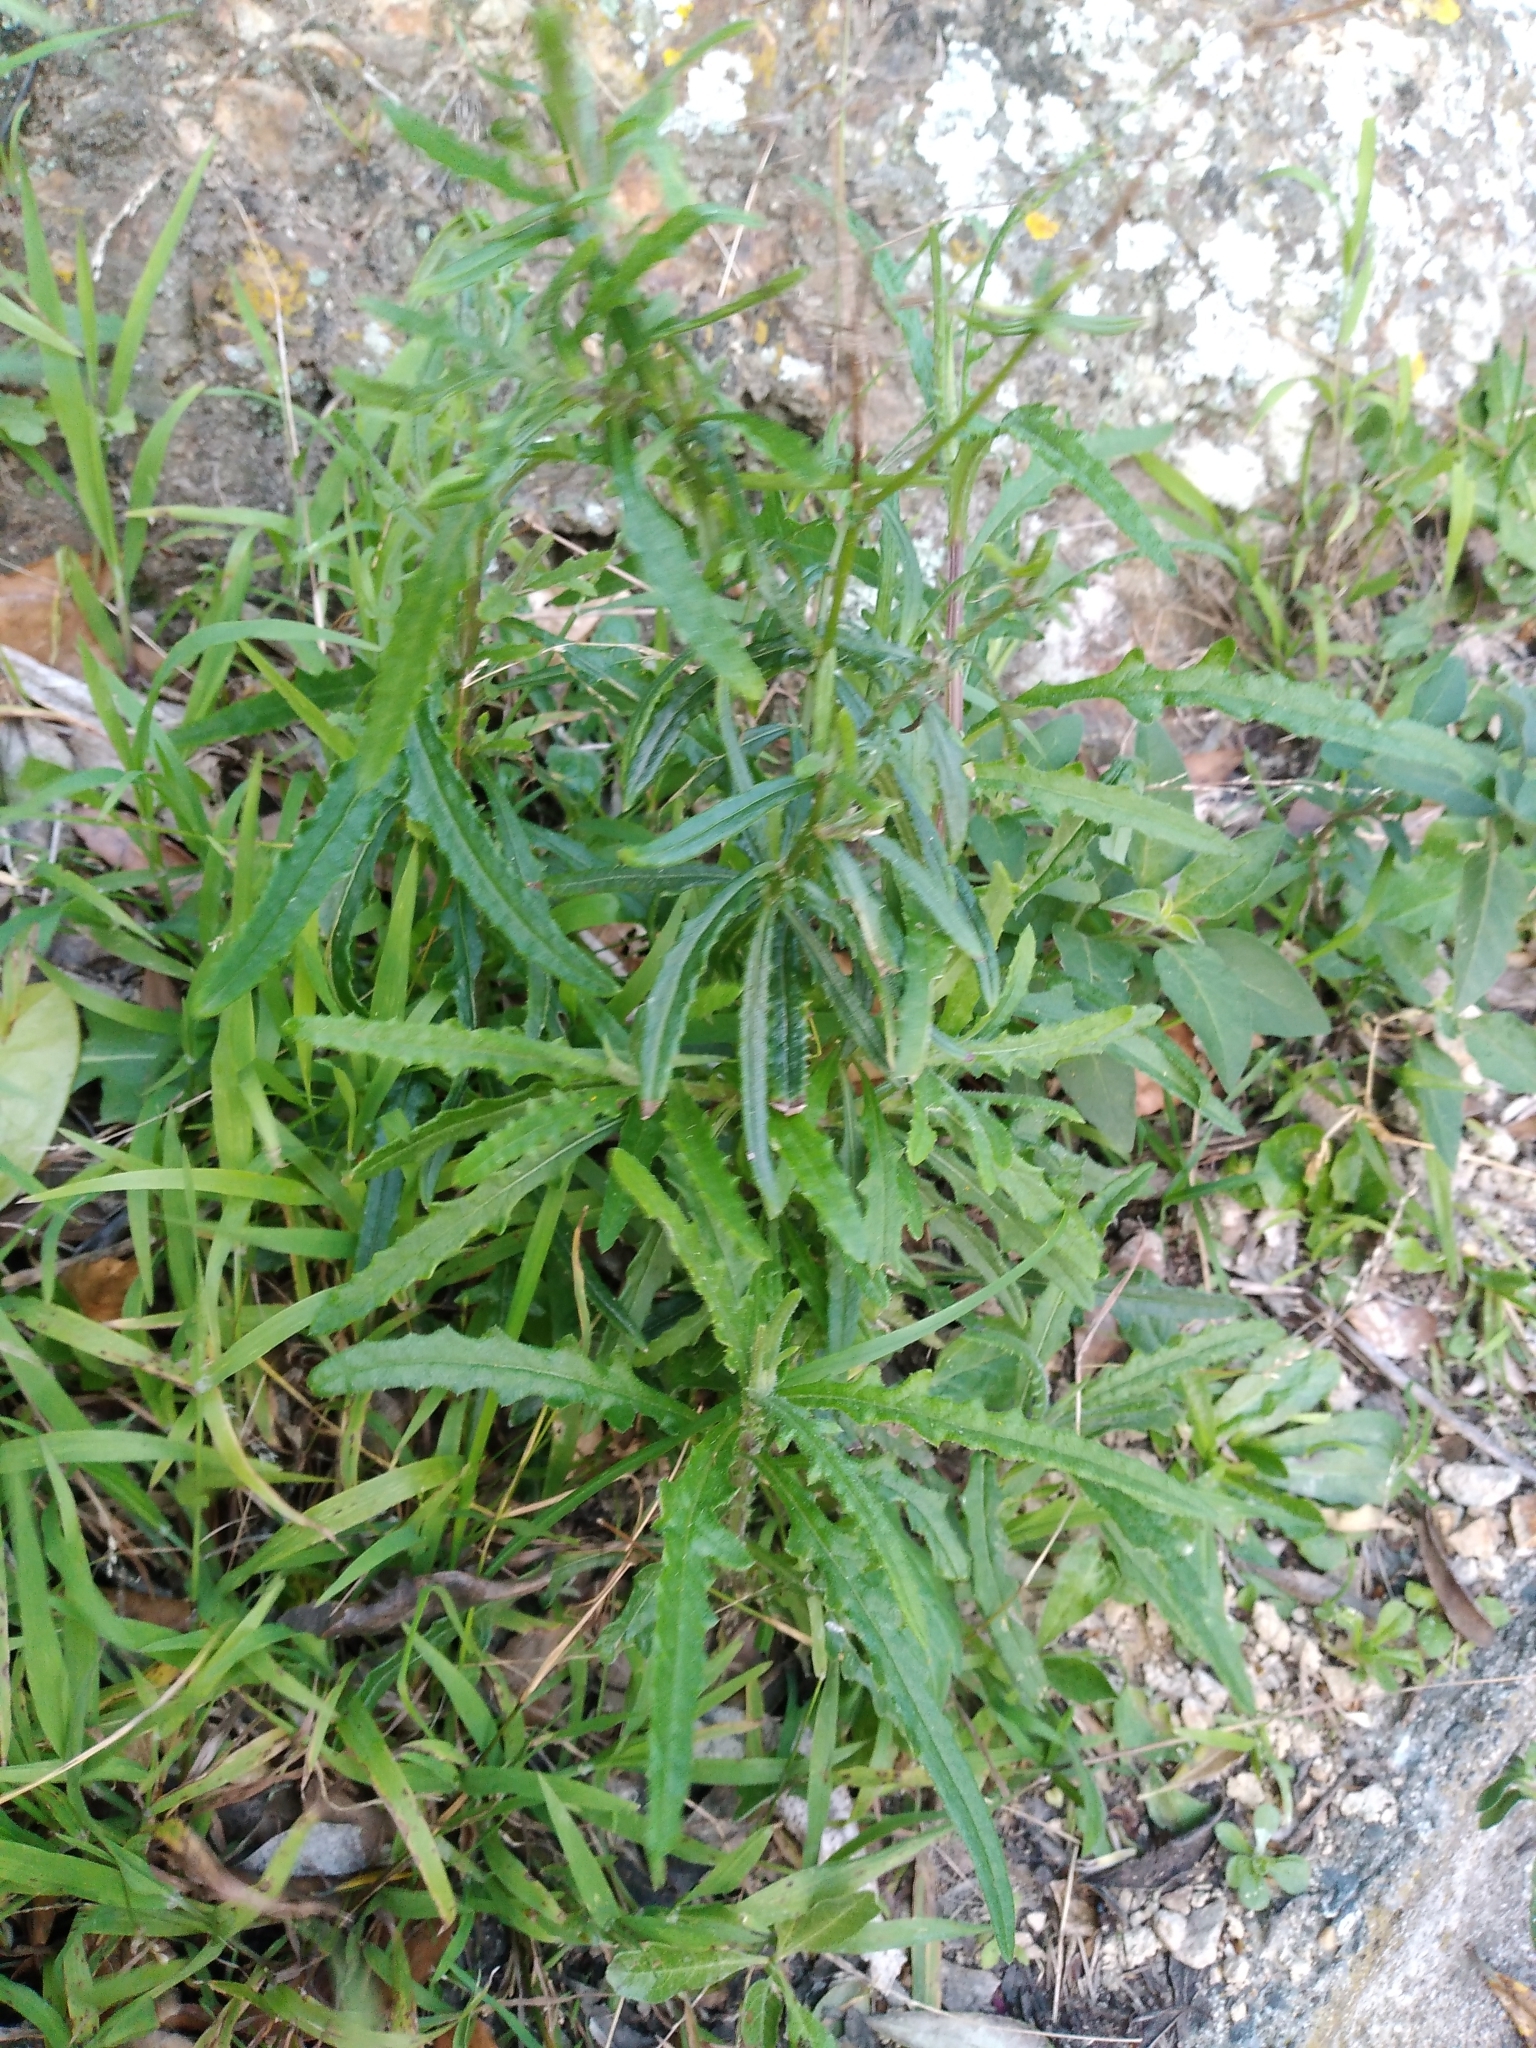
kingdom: Plantae
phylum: Tracheophyta
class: Magnoliopsida
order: Asterales
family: Asteraceae
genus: Senecio
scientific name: Senecio hispidulus
